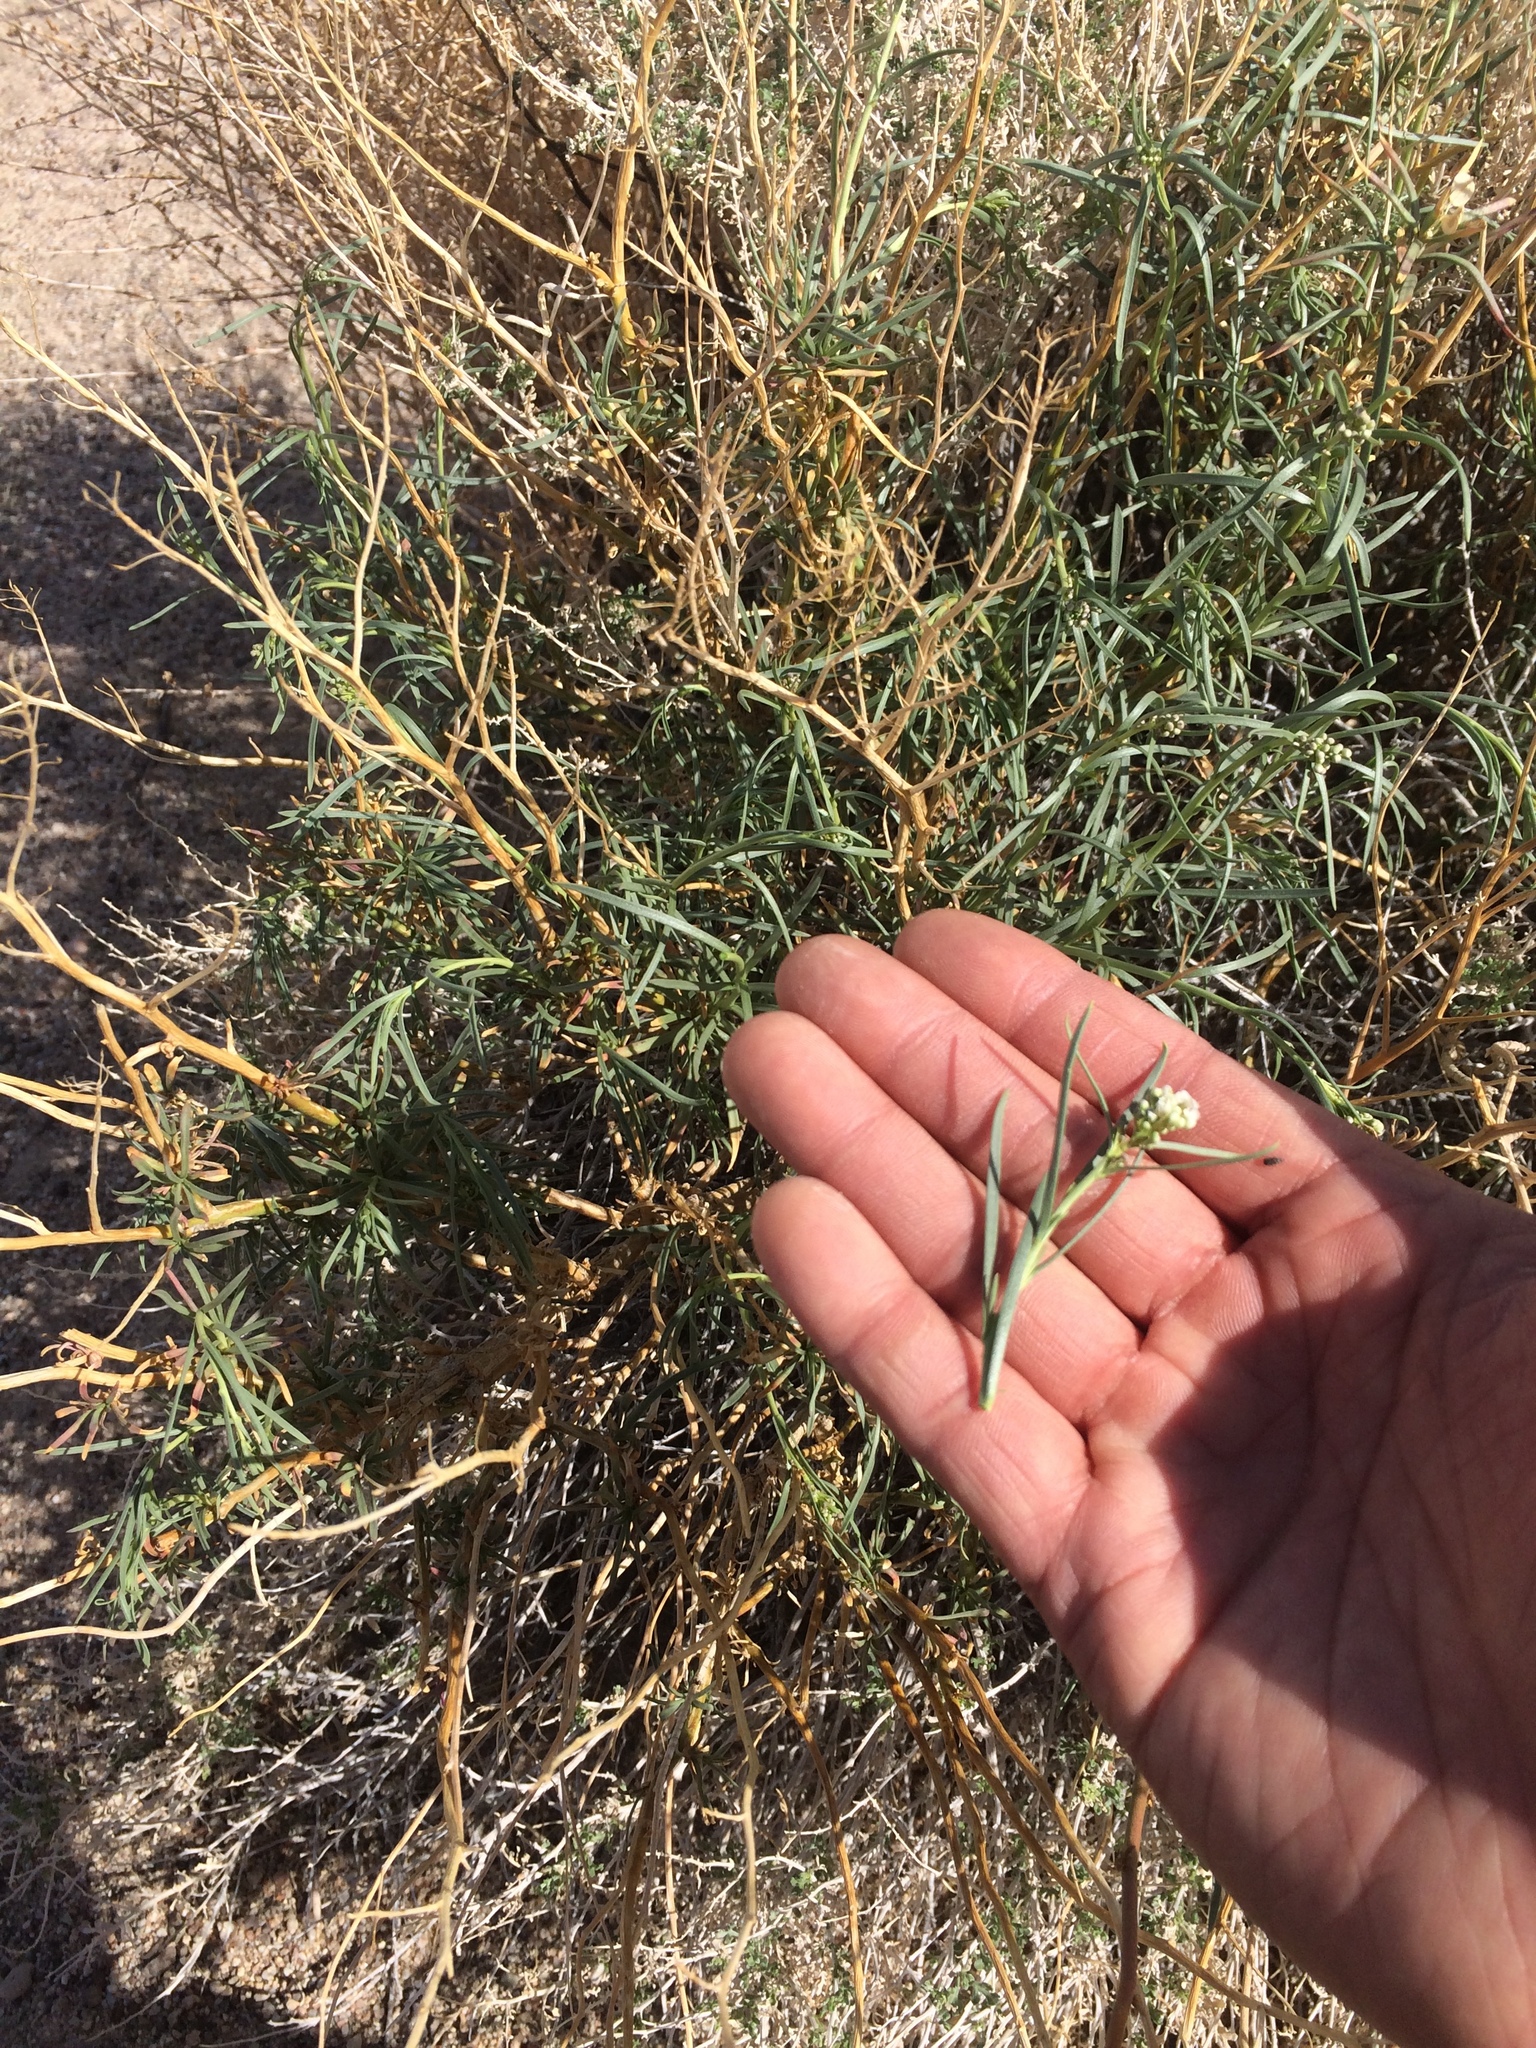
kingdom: Plantae
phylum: Tracheophyta
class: Magnoliopsida
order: Brassicales
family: Brassicaceae
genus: Lepidium
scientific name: Lepidium fremontii
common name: Fremont's pepperwort
